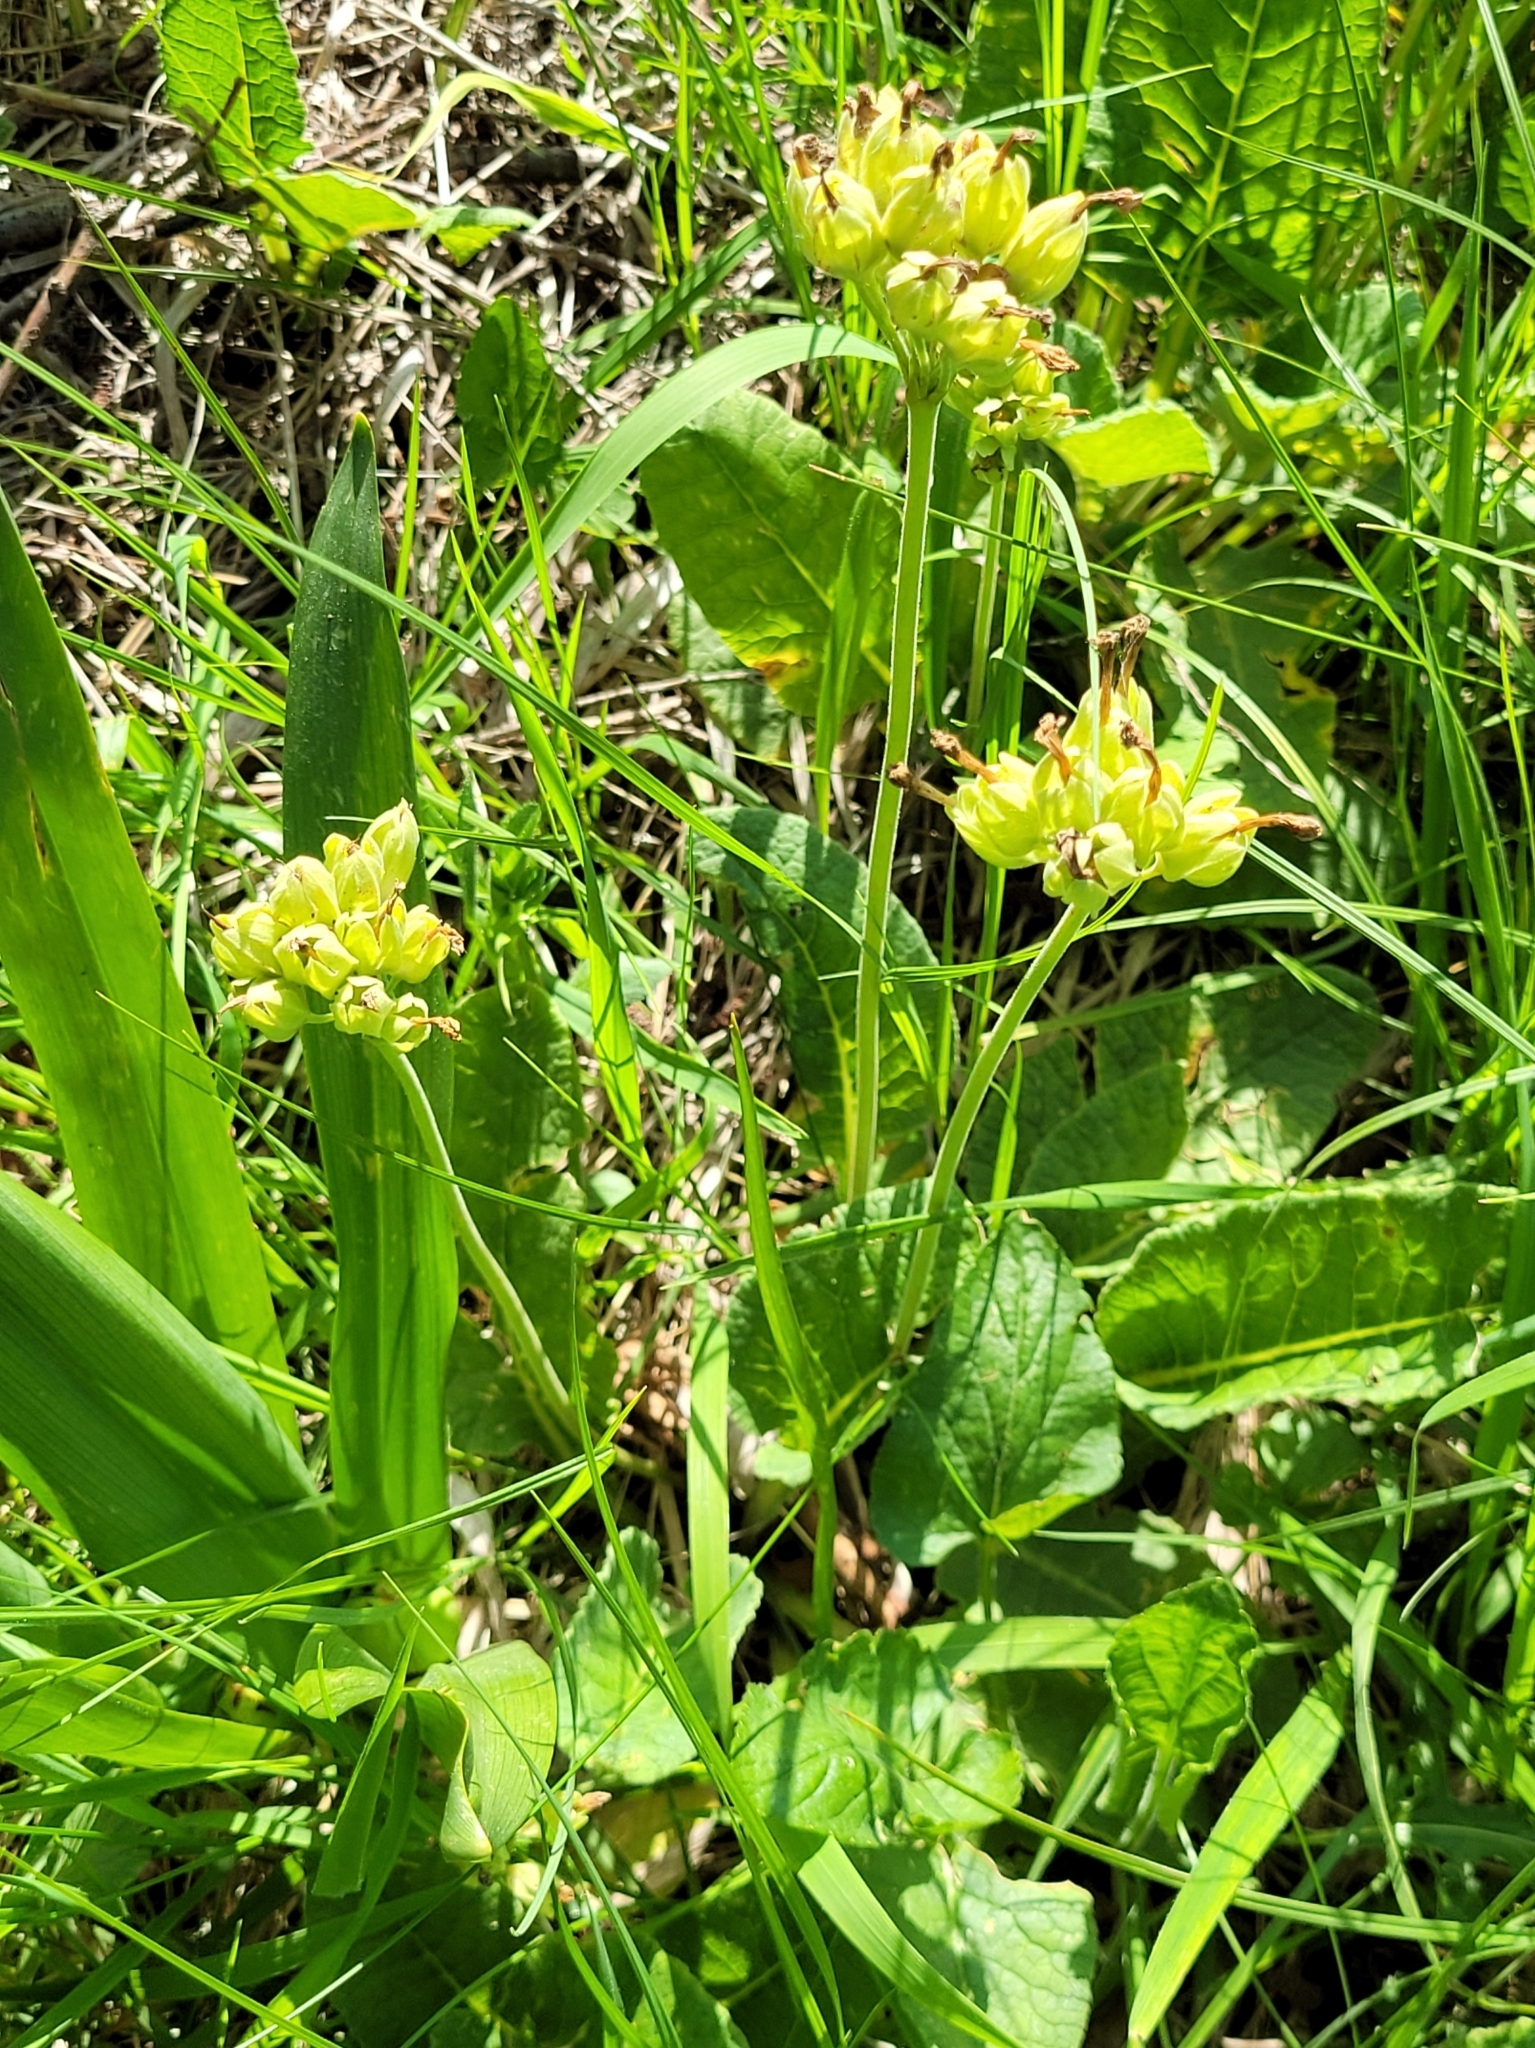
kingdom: Plantae
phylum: Tracheophyta
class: Magnoliopsida
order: Ericales
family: Primulaceae
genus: Primula
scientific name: Primula veris
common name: Cowslip
